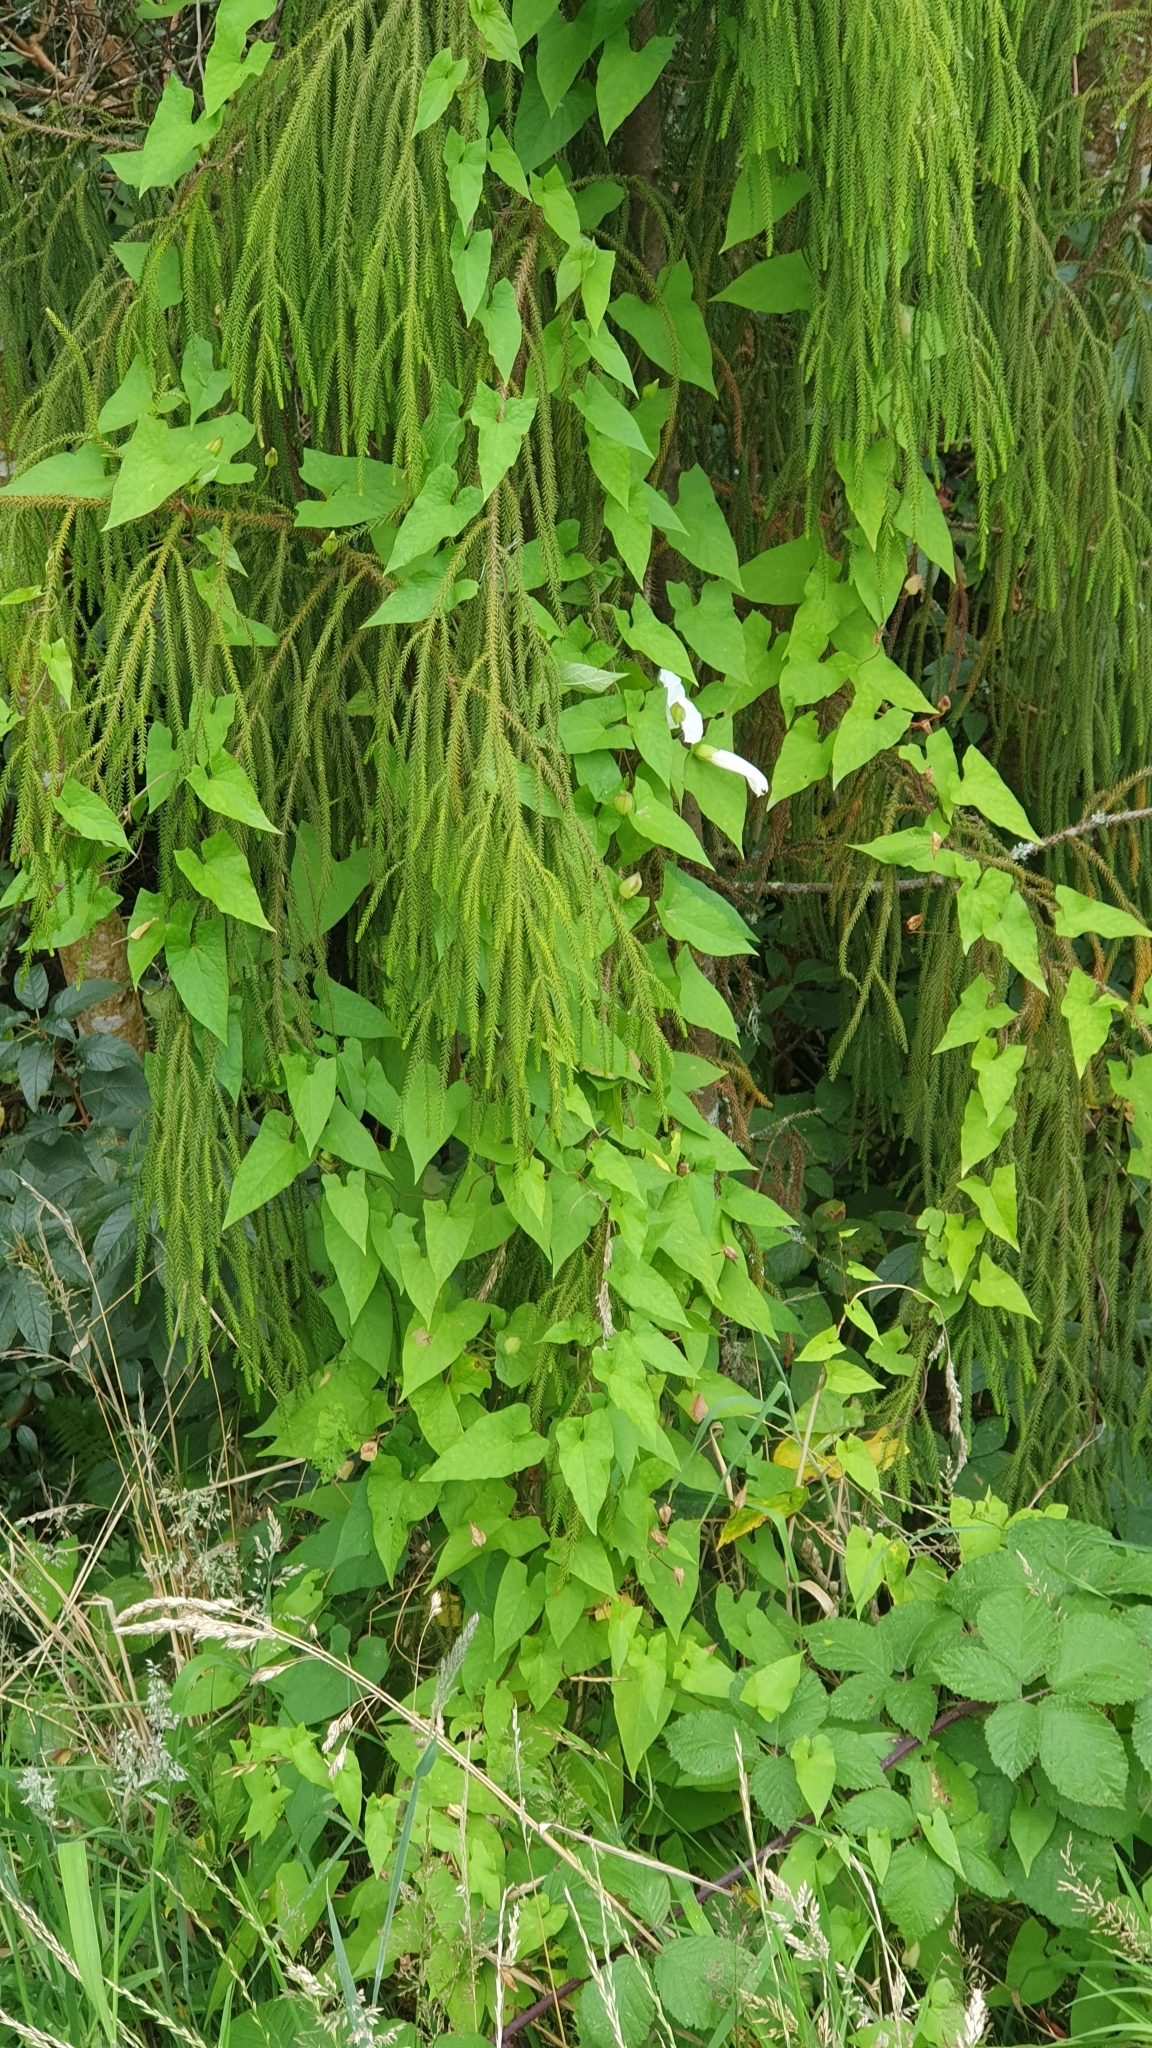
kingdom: Plantae
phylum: Tracheophyta
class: Magnoliopsida
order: Solanales
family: Convolvulaceae
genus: Calystegia
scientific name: Calystegia silvatica
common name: Large bindweed
